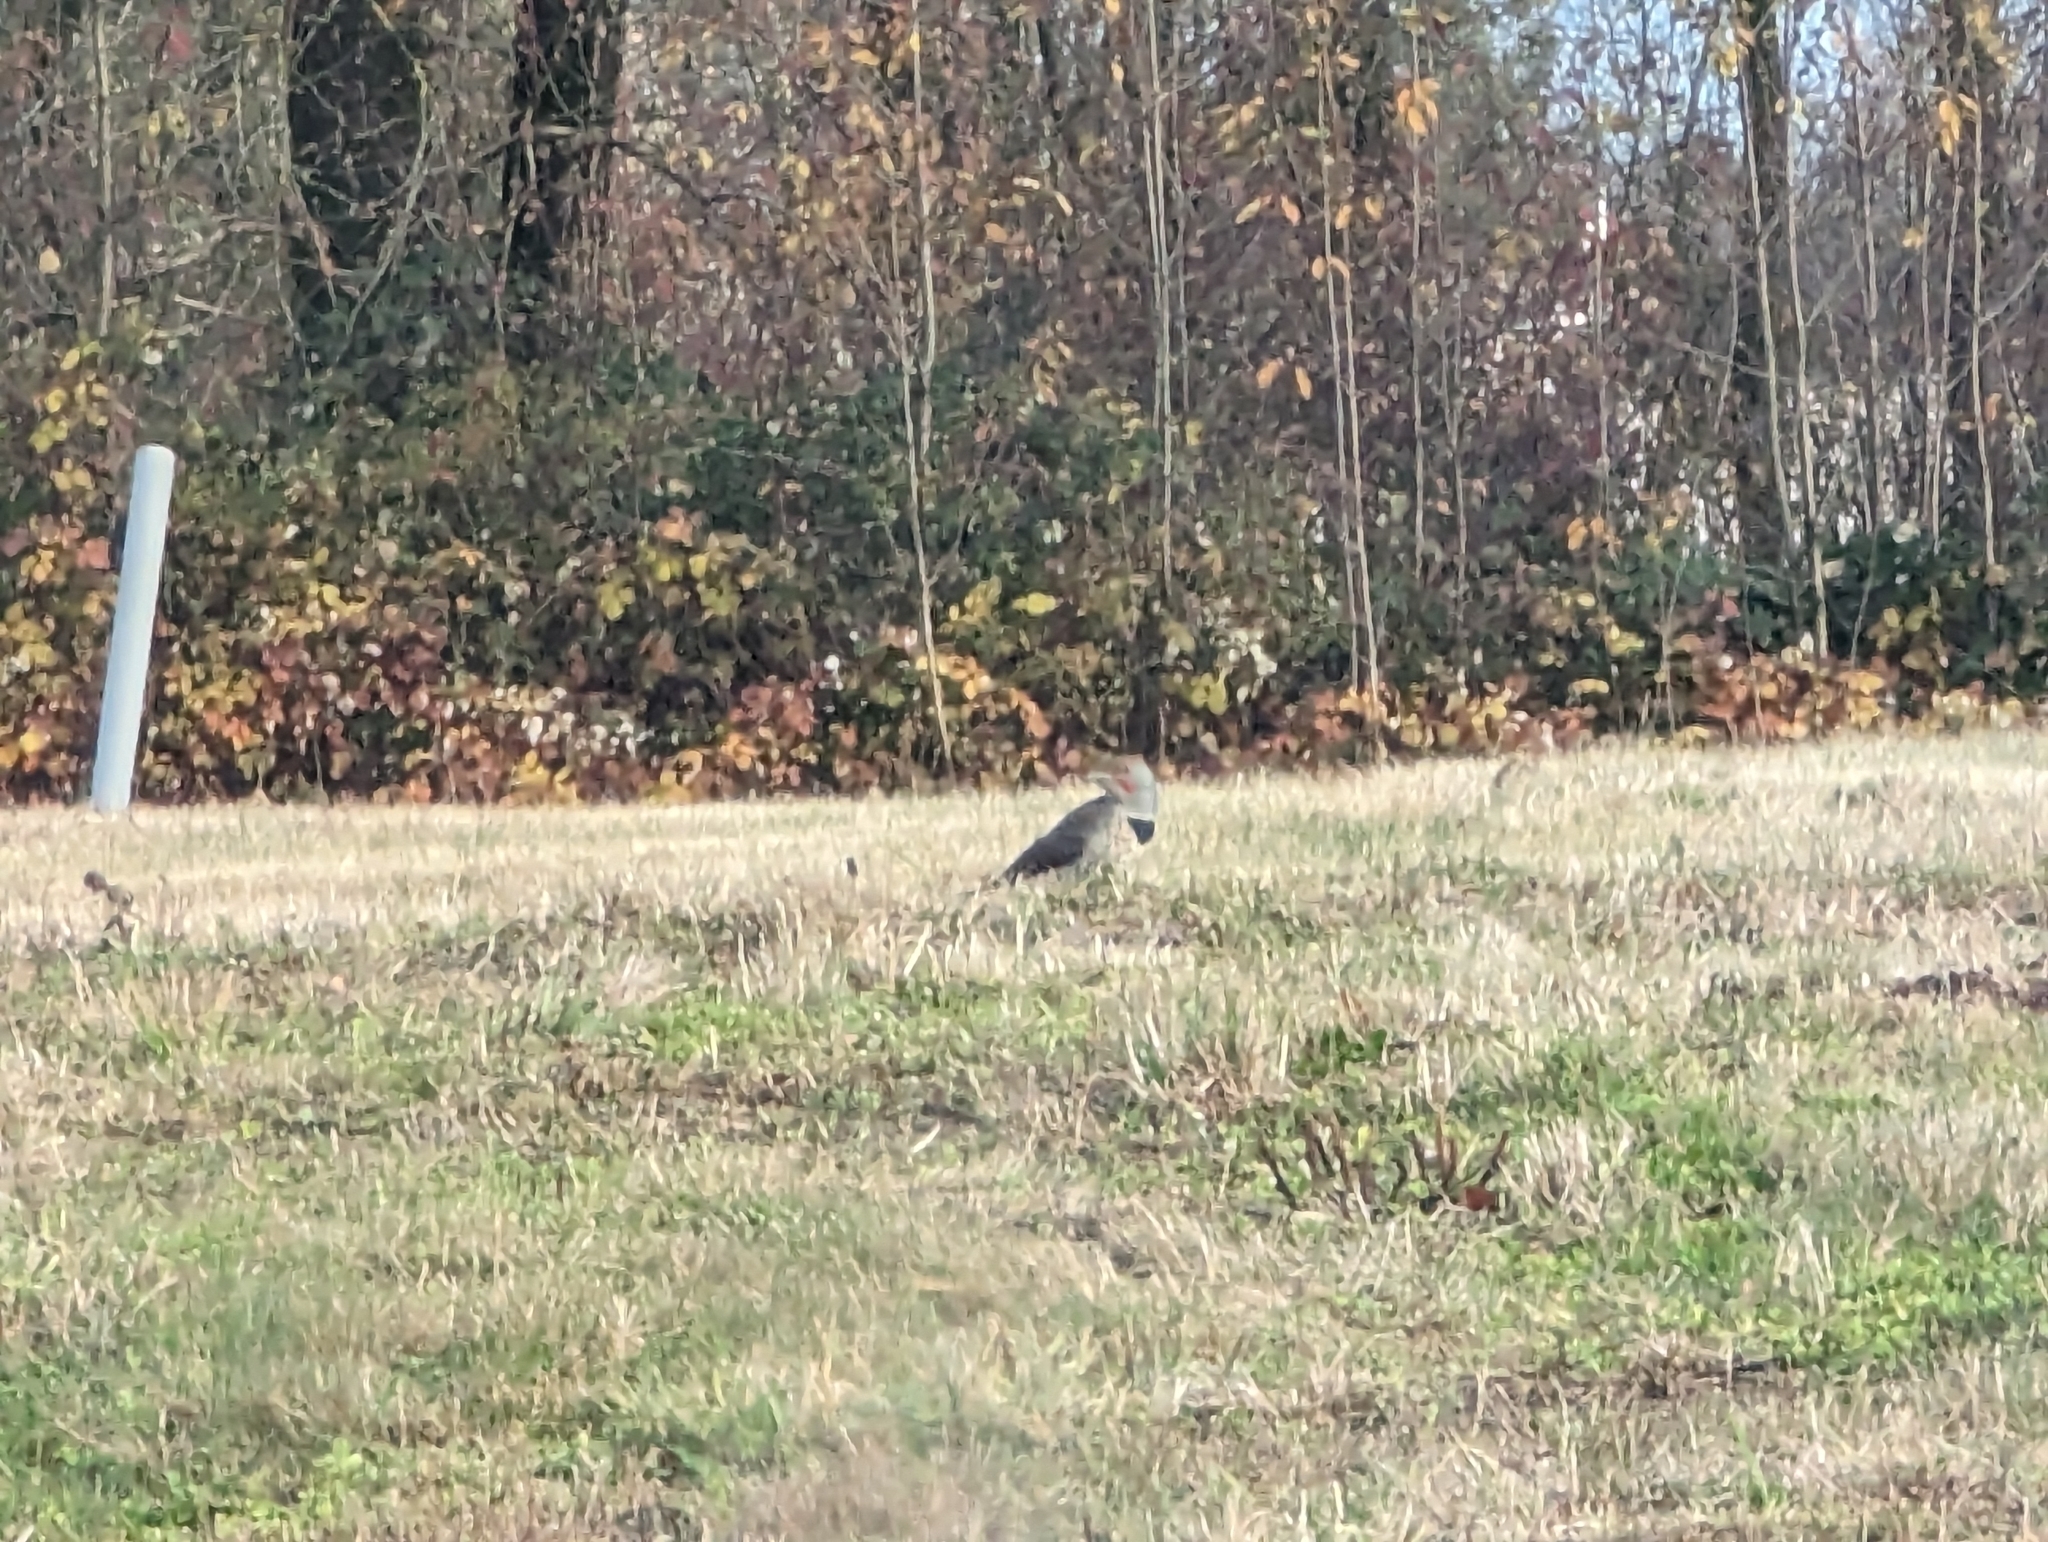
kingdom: Animalia
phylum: Chordata
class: Aves
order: Piciformes
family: Picidae
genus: Colaptes
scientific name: Colaptes auratus
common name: Northern flicker
